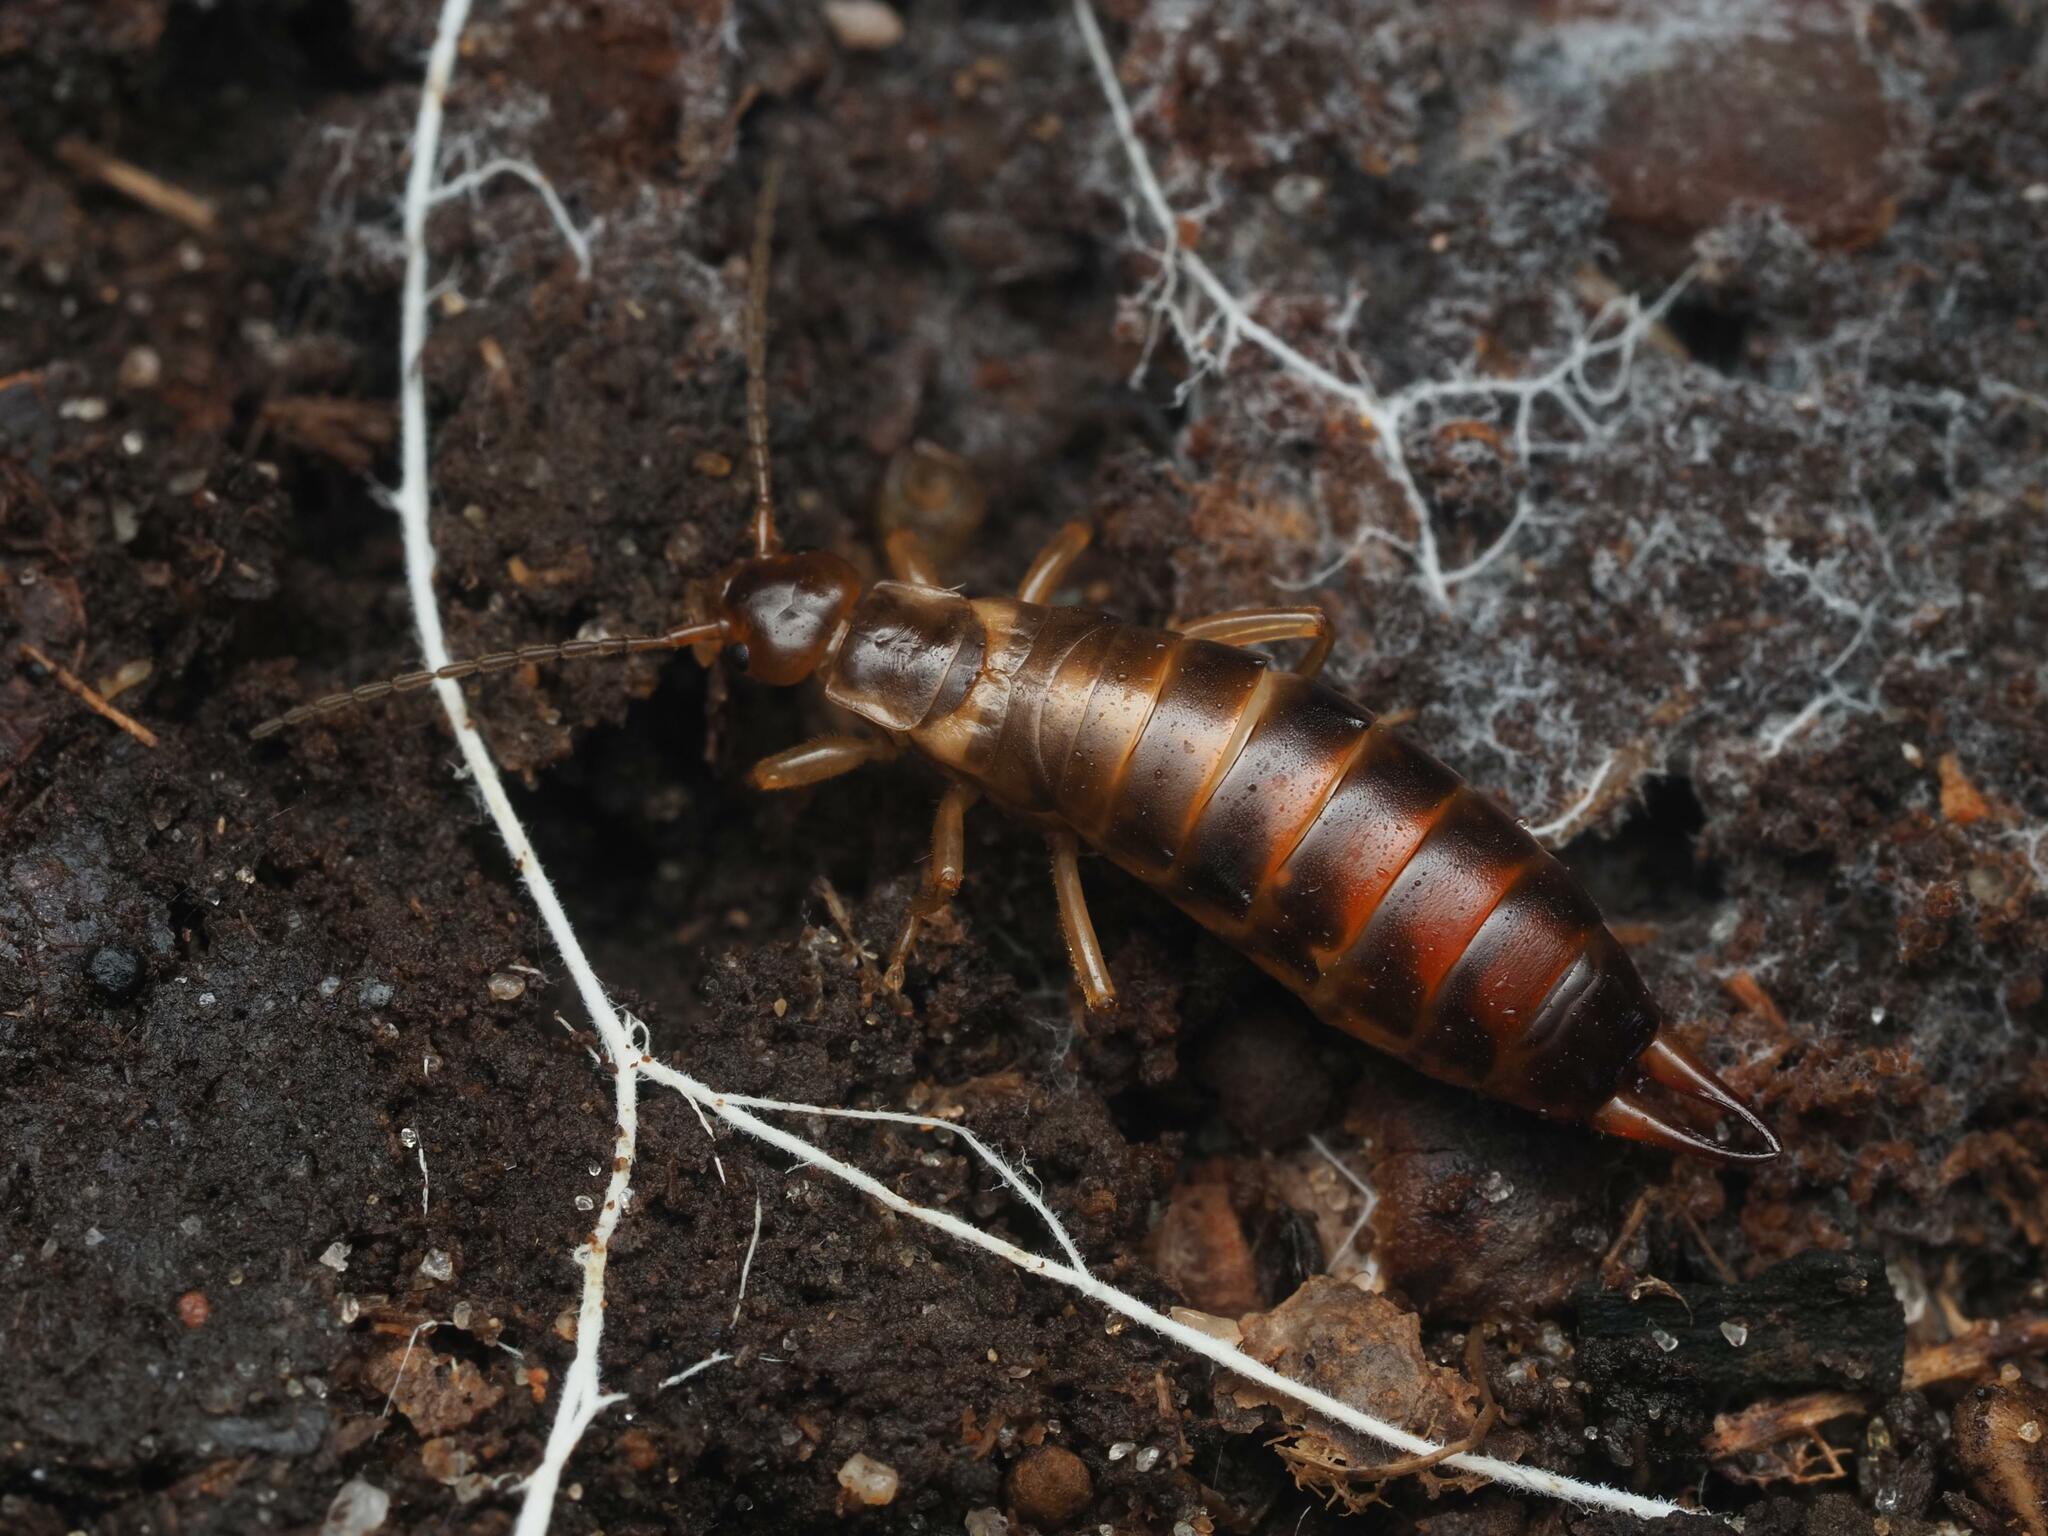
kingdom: Animalia
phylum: Arthropoda
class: Insecta
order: Dermaptera
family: Forficulidae
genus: Chelidurella
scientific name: Chelidurella acanthopygia
